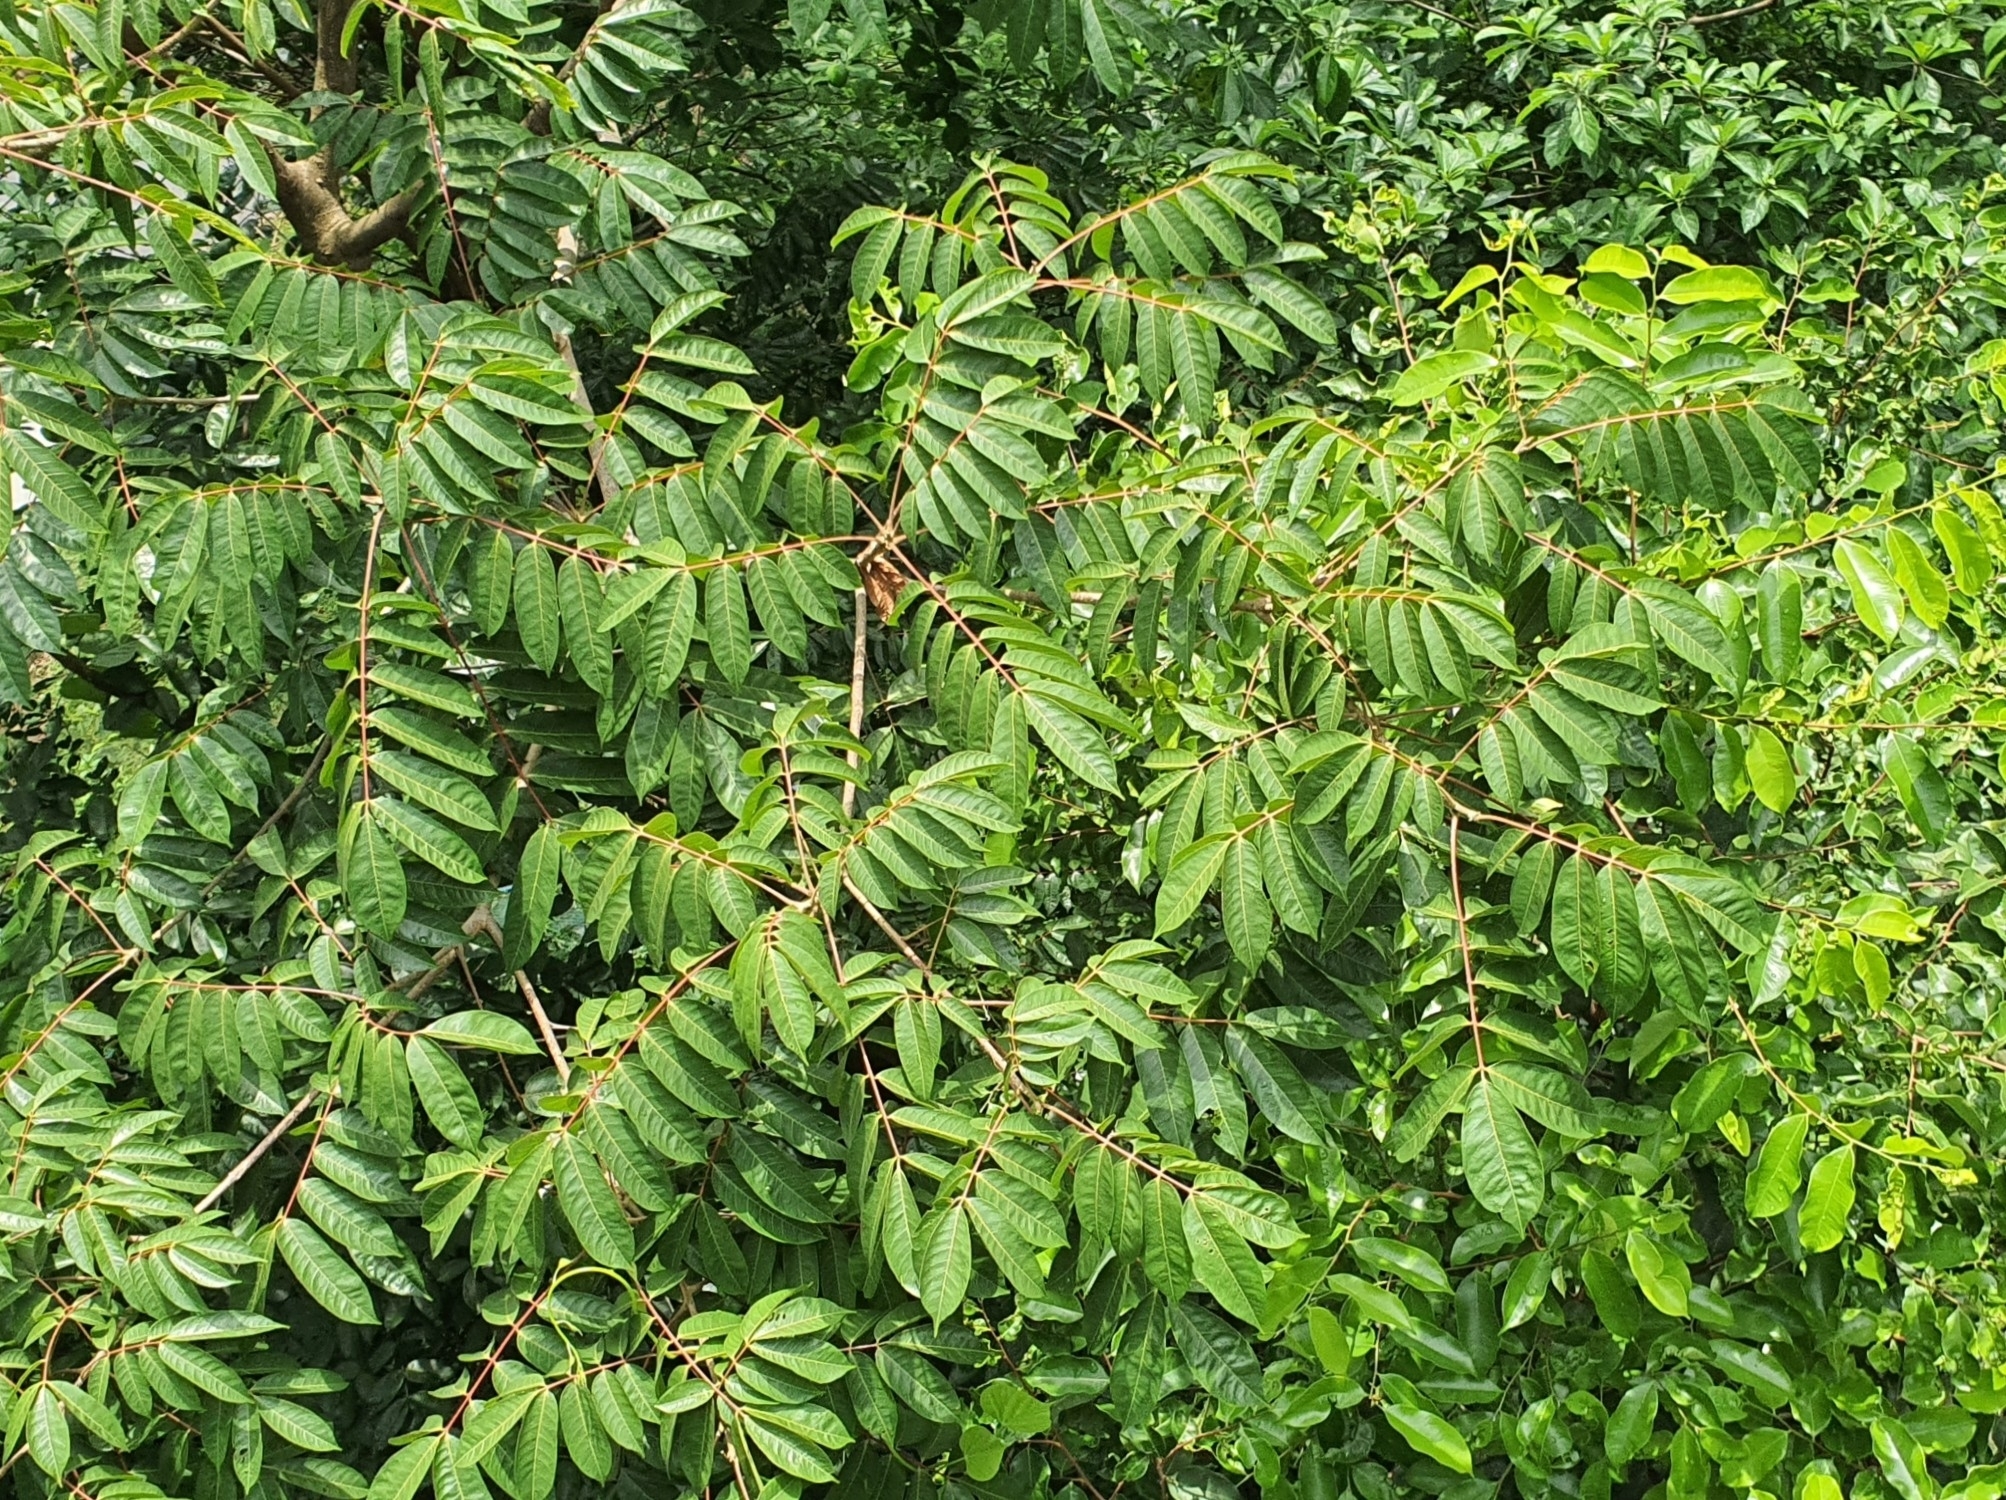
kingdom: Plantae
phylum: Tracheophyta
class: Magnoliopsida
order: Sapindales
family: Anacardiaceae
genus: Pentaspadon
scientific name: Pentaspadon motleyi
